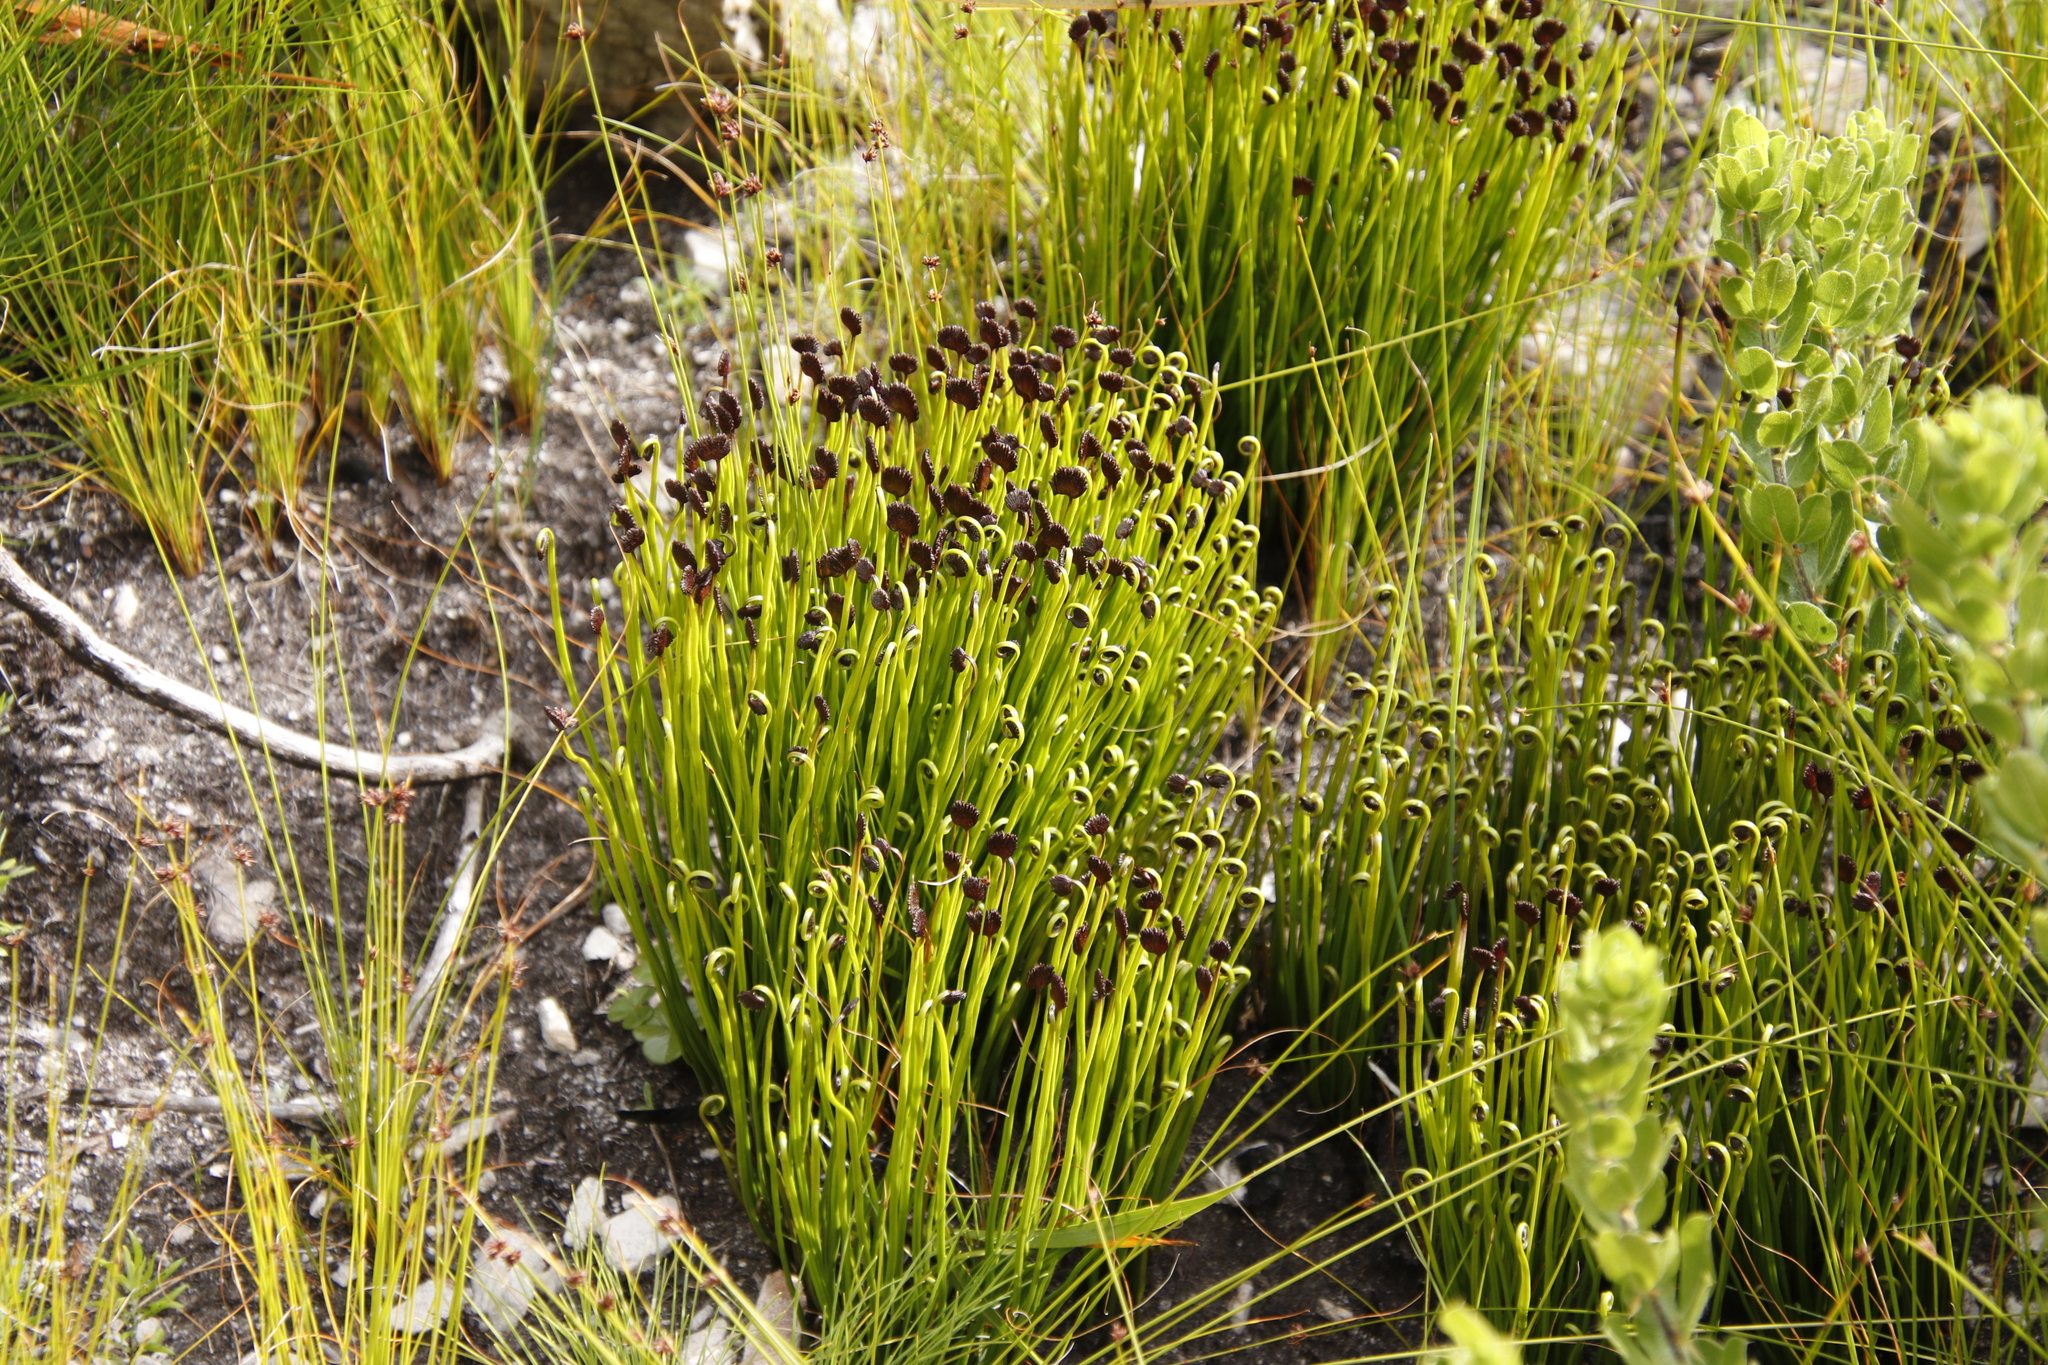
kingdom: Plantae
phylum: Tracheophyta
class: Polypodiopsida
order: Schizaeales
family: Schizaeaceae
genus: Schizaea
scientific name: Schizaea pectinata
